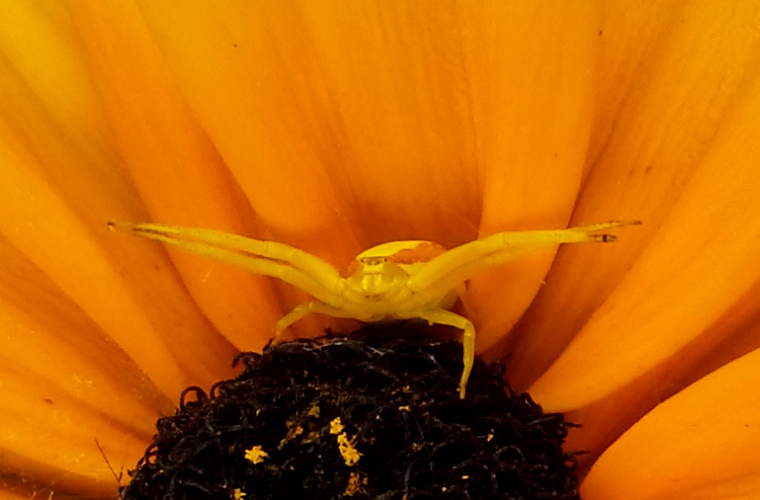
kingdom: Animalia
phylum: Arthropoda
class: Arachnida
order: Araneae
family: Thomisidae
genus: Misumena
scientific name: Misumena vatia
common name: Goldenrod crab spider
